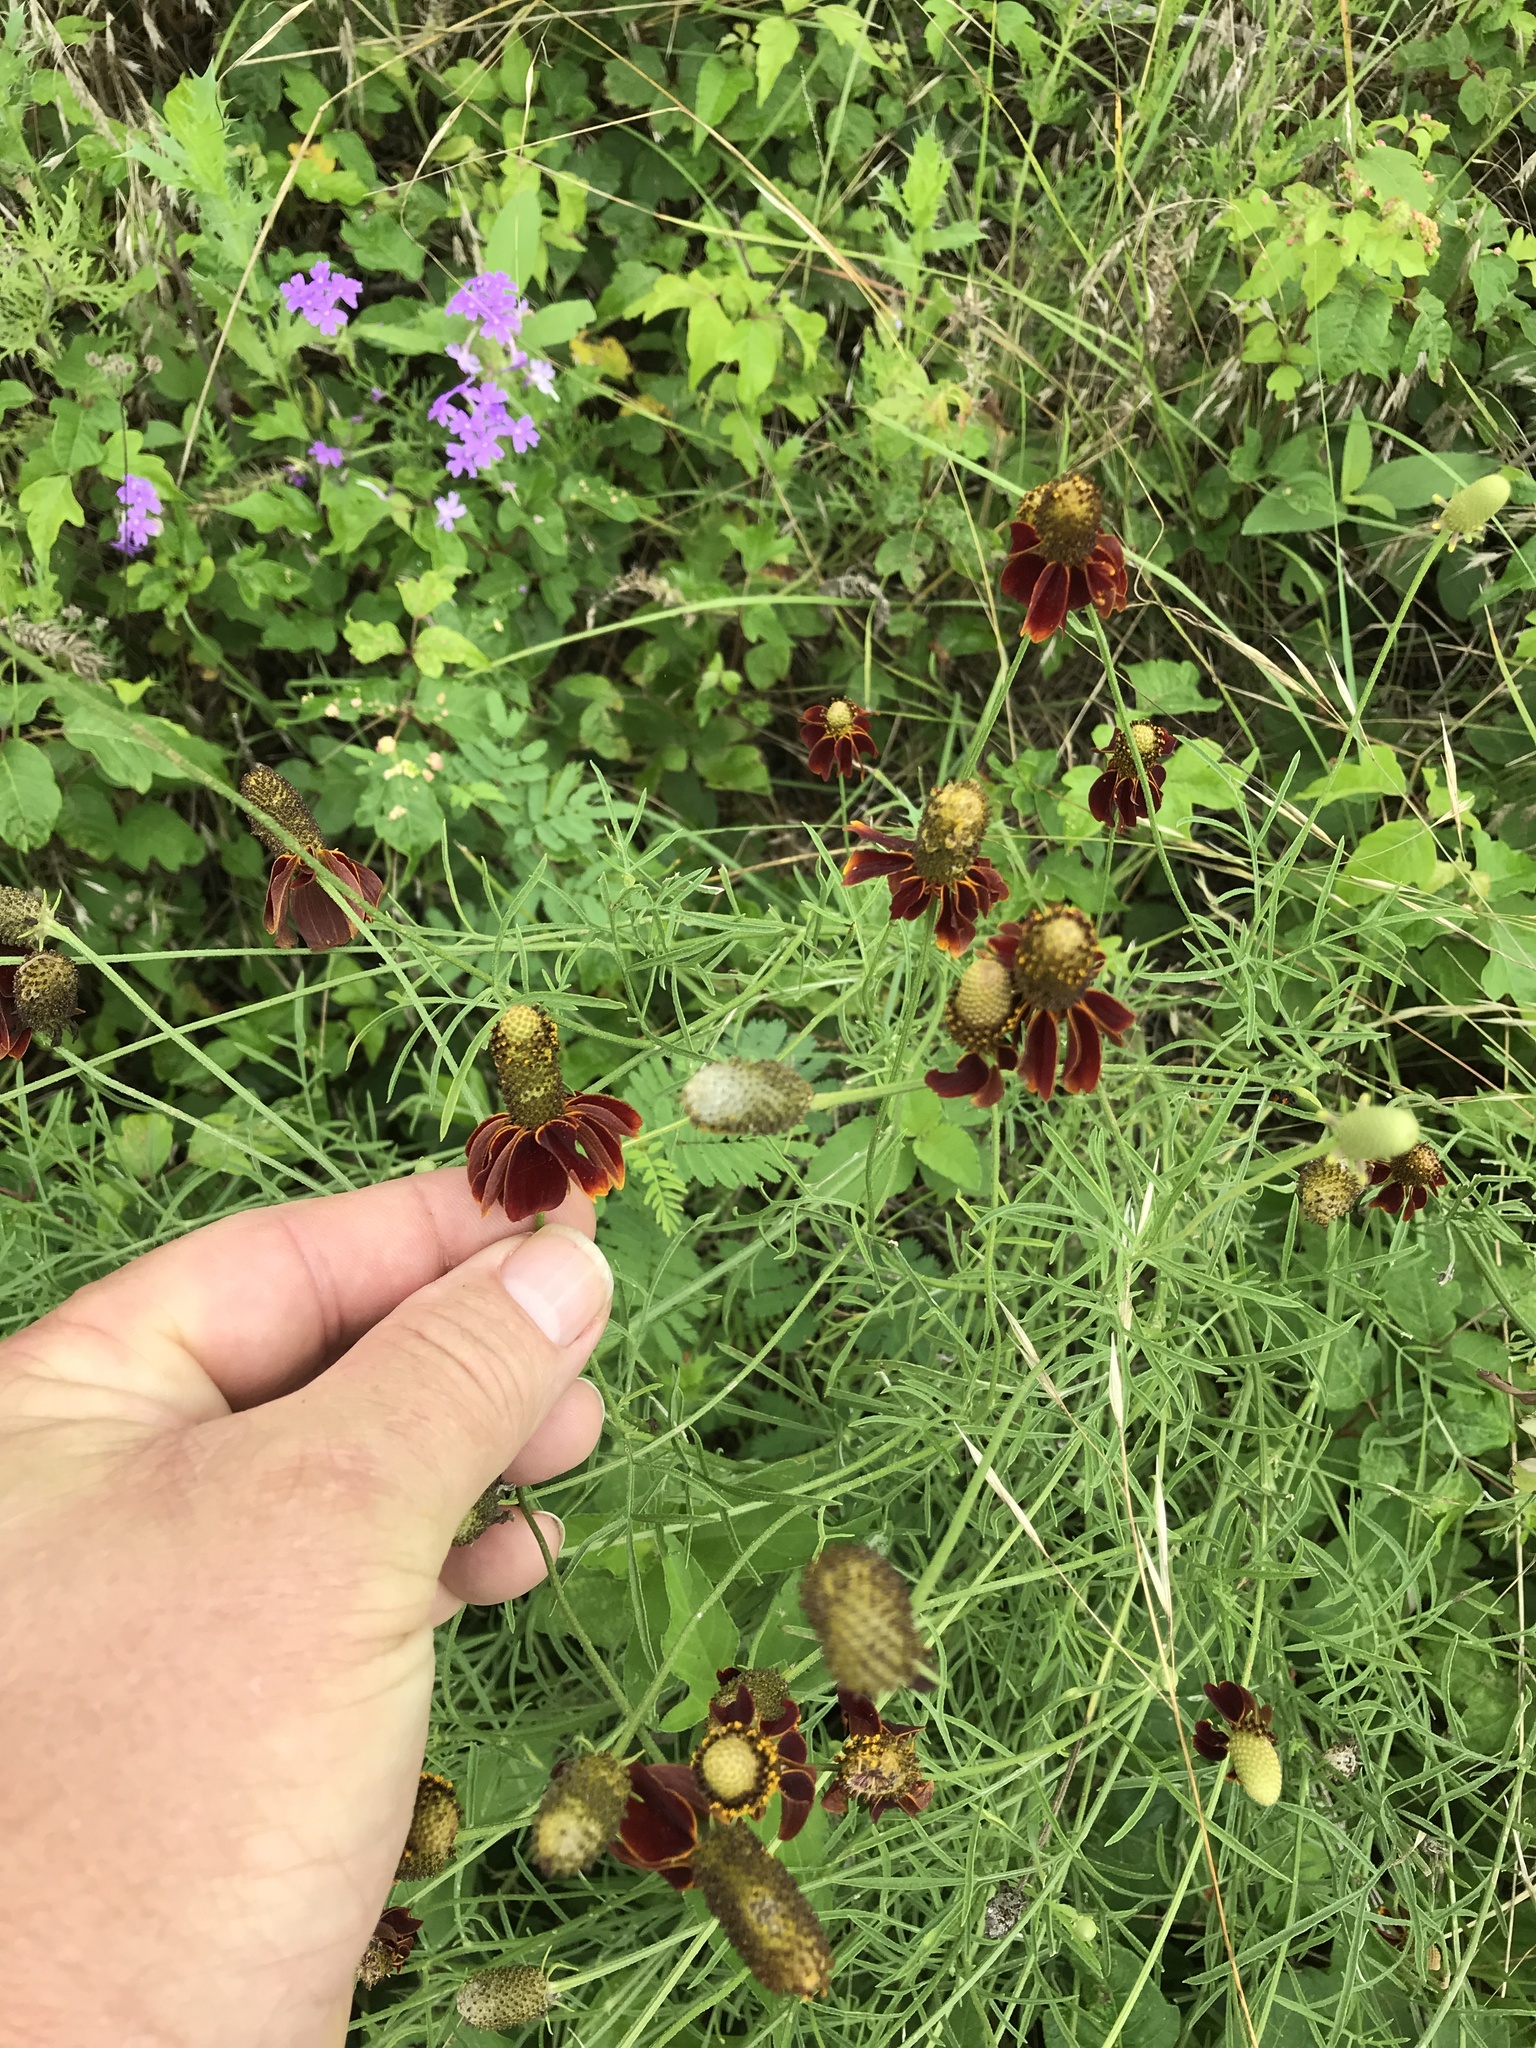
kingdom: Plantae
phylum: Tracheophyta
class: Magnoliopsida
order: Asterales
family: Asteraceae
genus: Ratibida
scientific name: Ratibida columnifera
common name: Prairie coneflower
